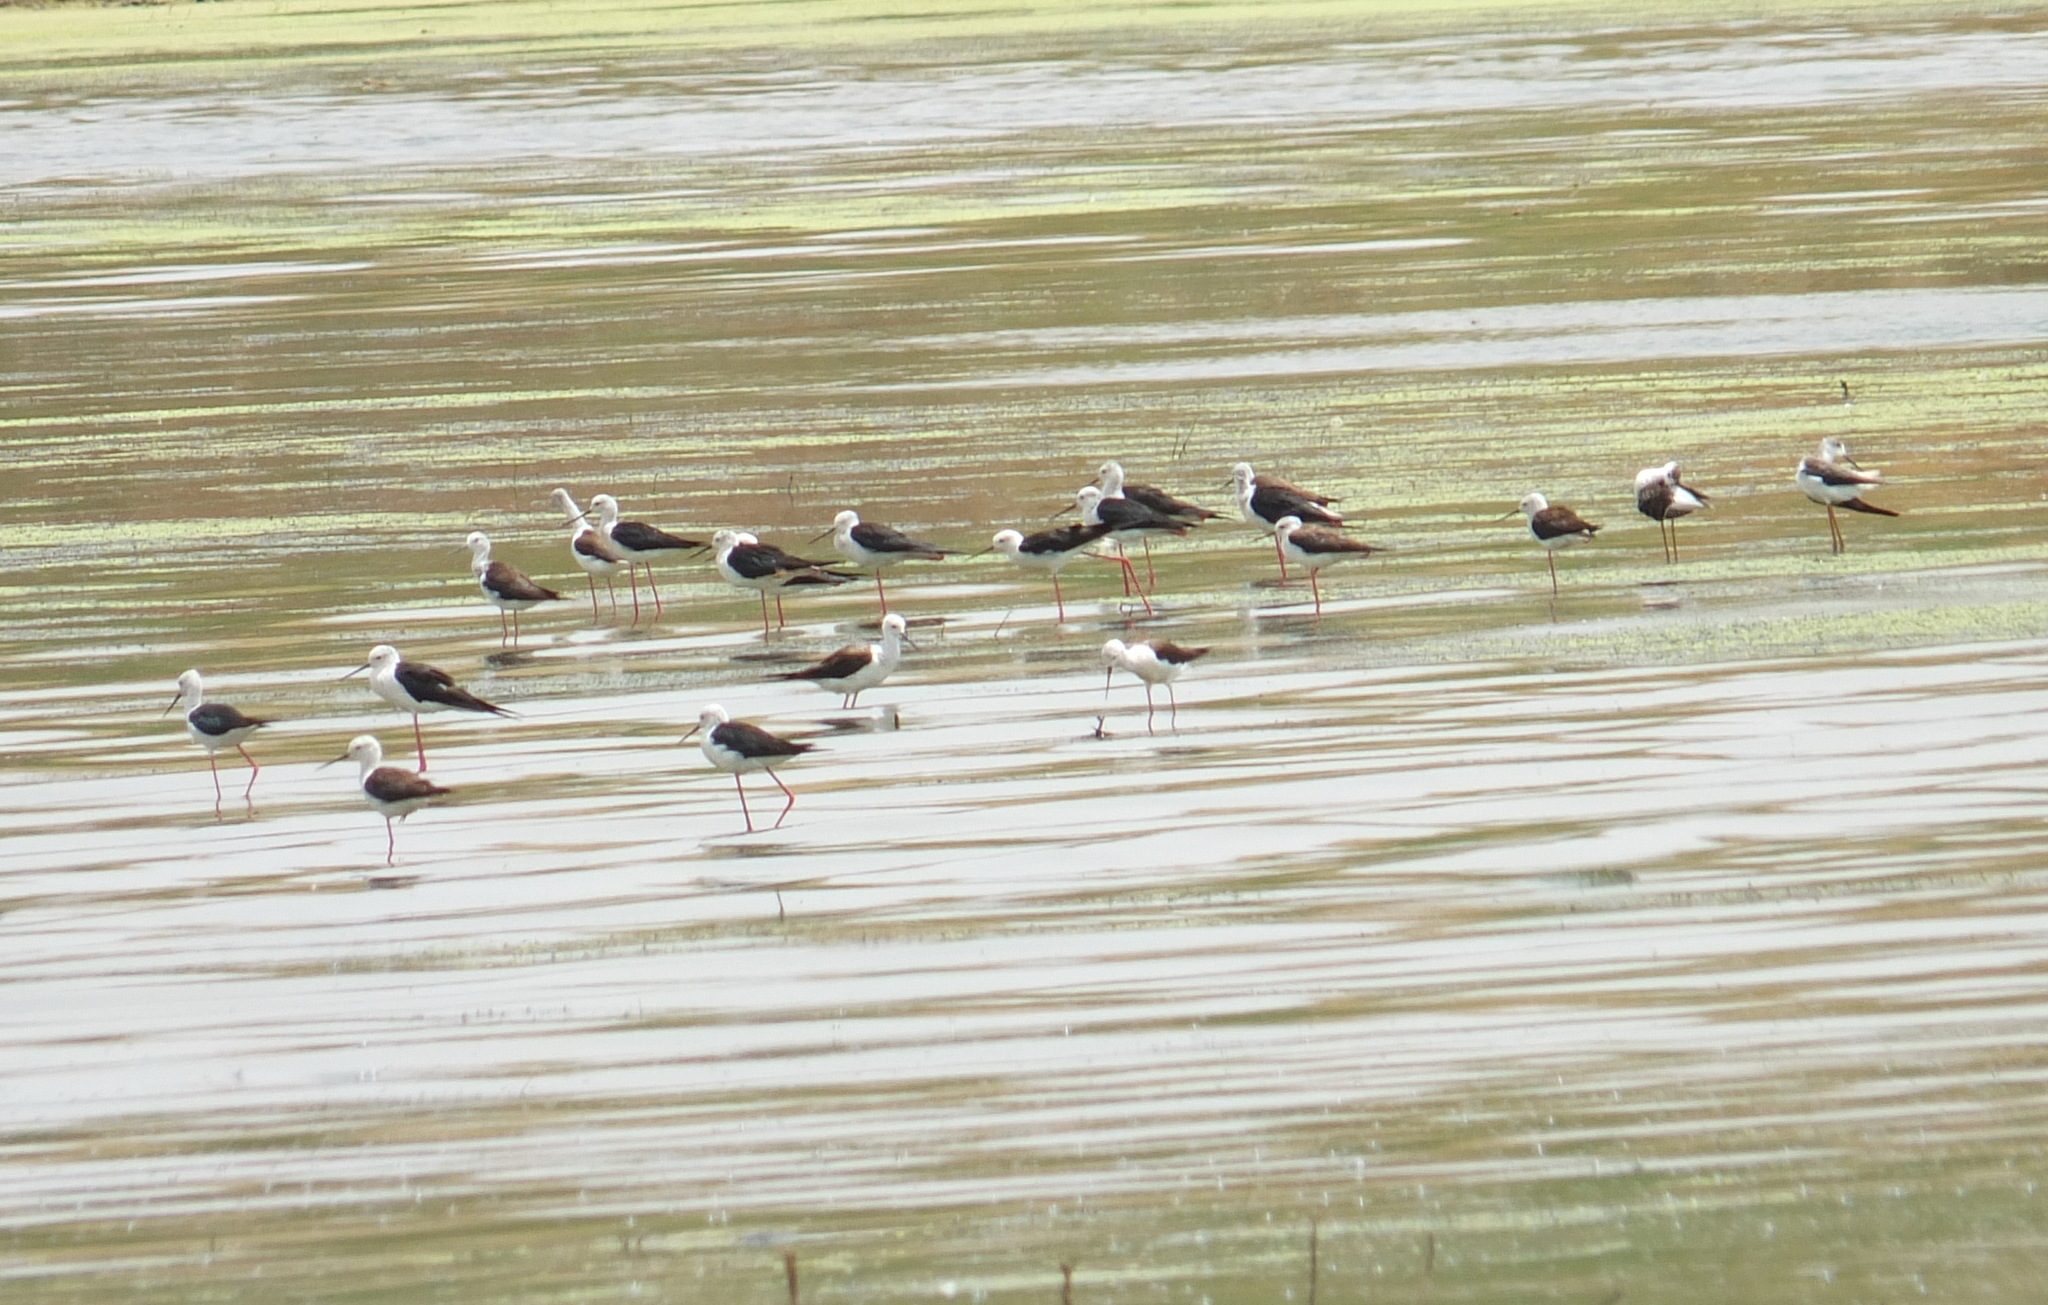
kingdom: Animalia
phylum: Chordata
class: Aves
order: Charadriiformes
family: Recurvirostridae
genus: Himantopus
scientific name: Himantopus himantopus
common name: Black-winged stilt
